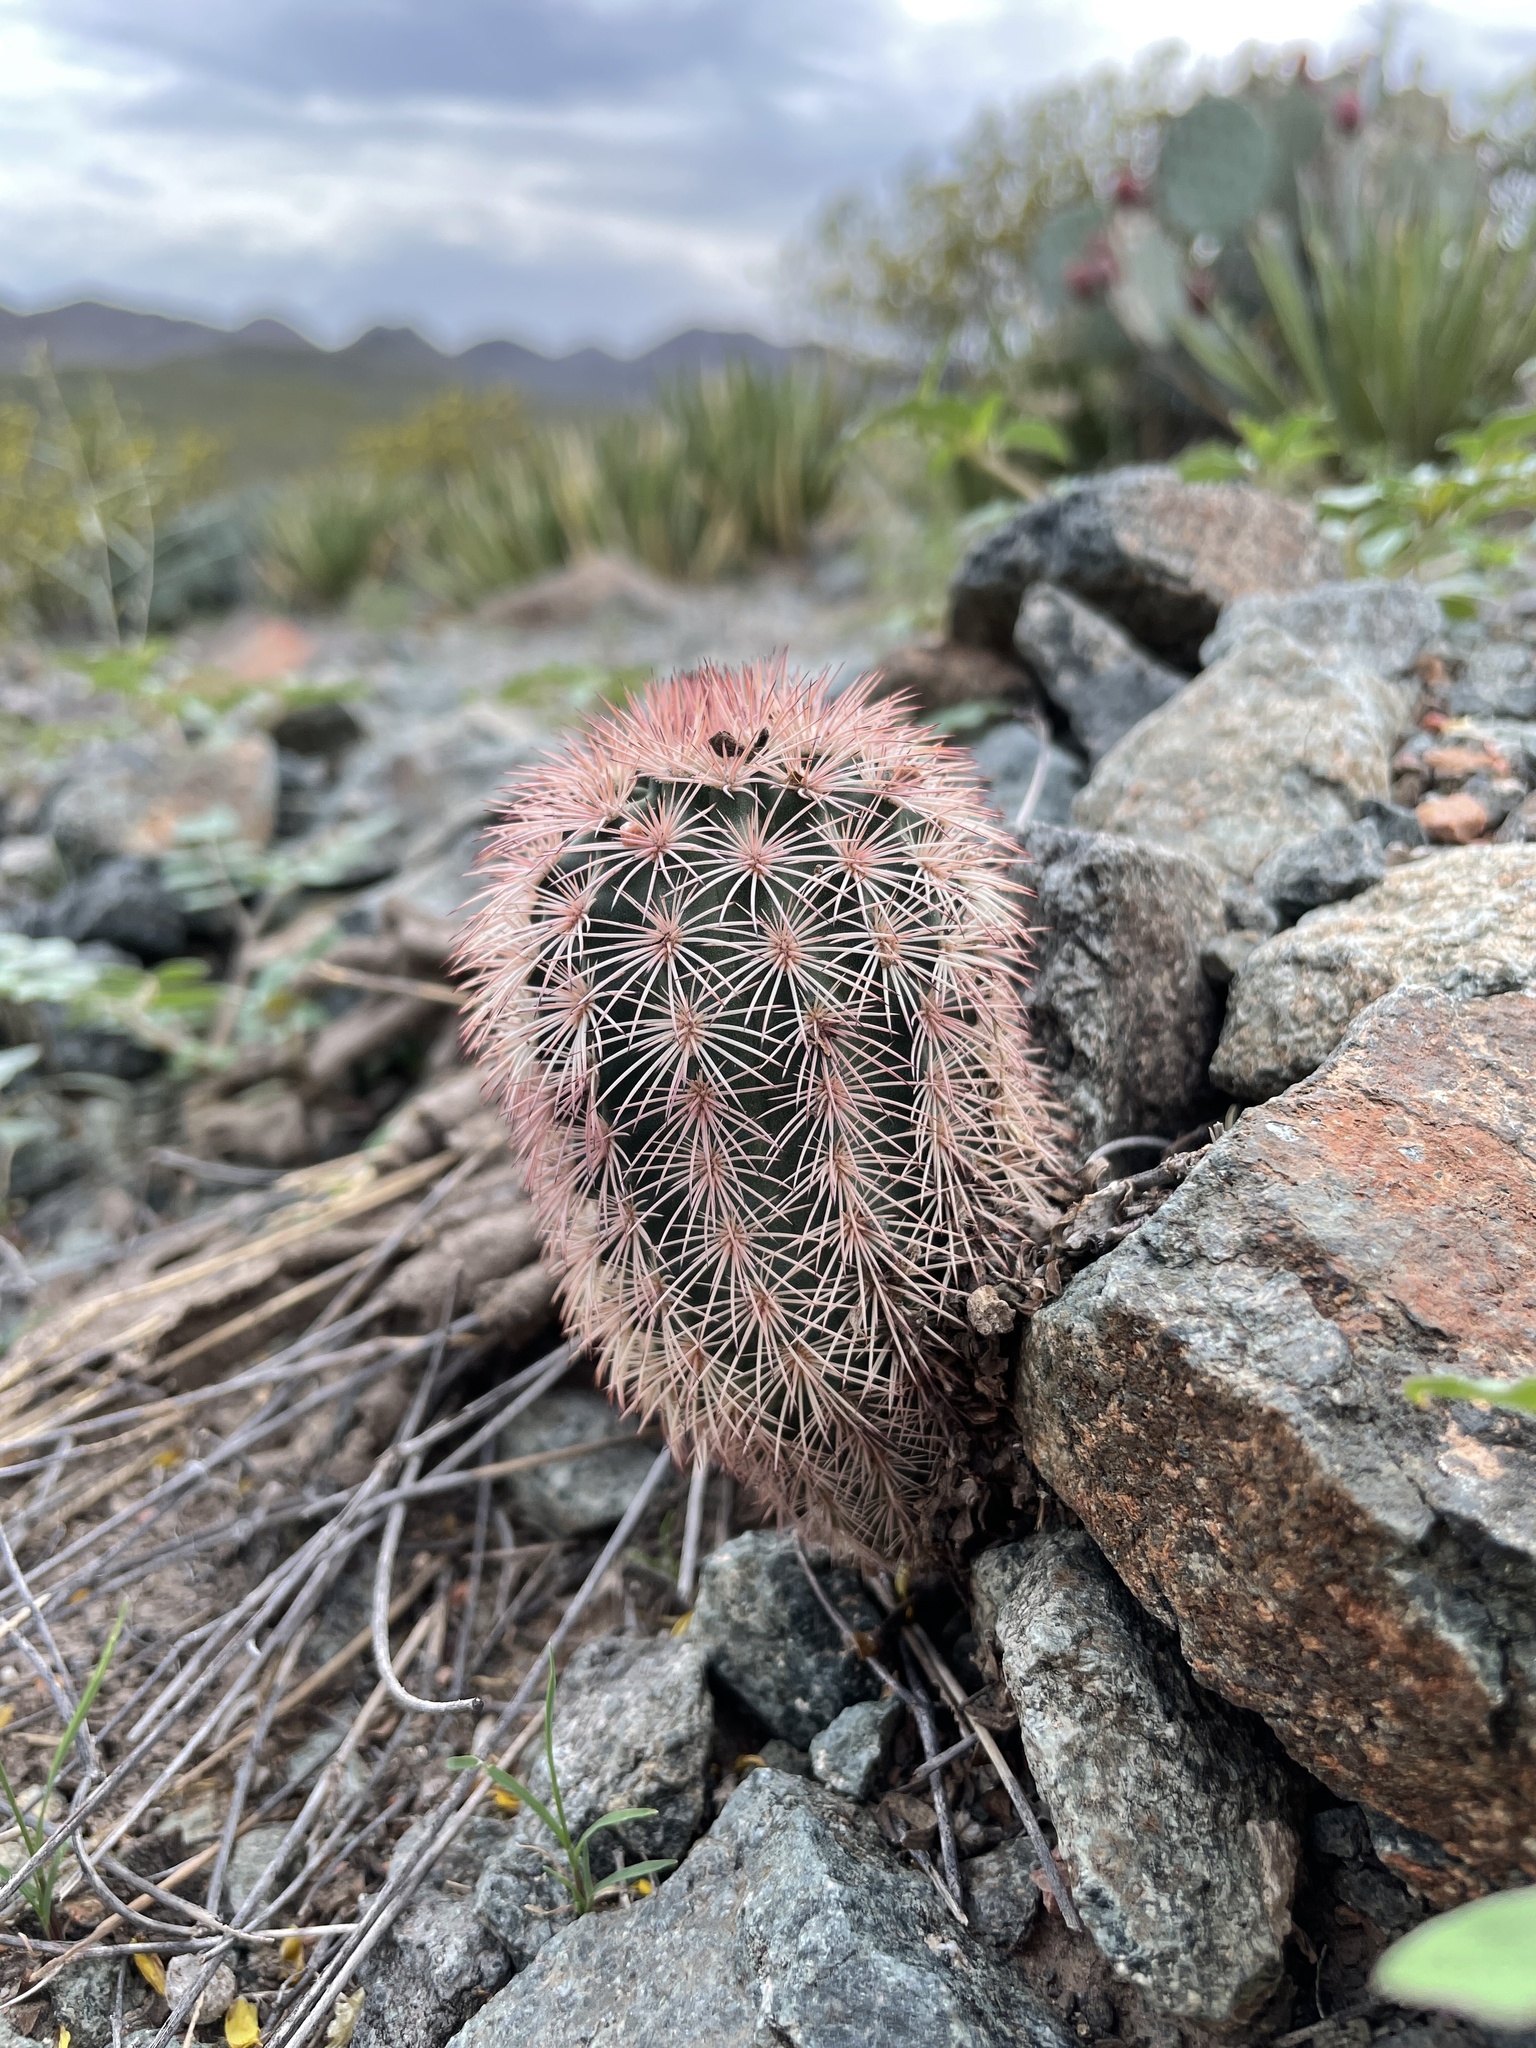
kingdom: Plantae
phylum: Tracheophyta
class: Magnoliopsida
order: Caryophyllales
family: Cactaceae
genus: Echinocereus
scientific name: Echinocereus dasyacanthus
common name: Spiny hedgehog cactus
